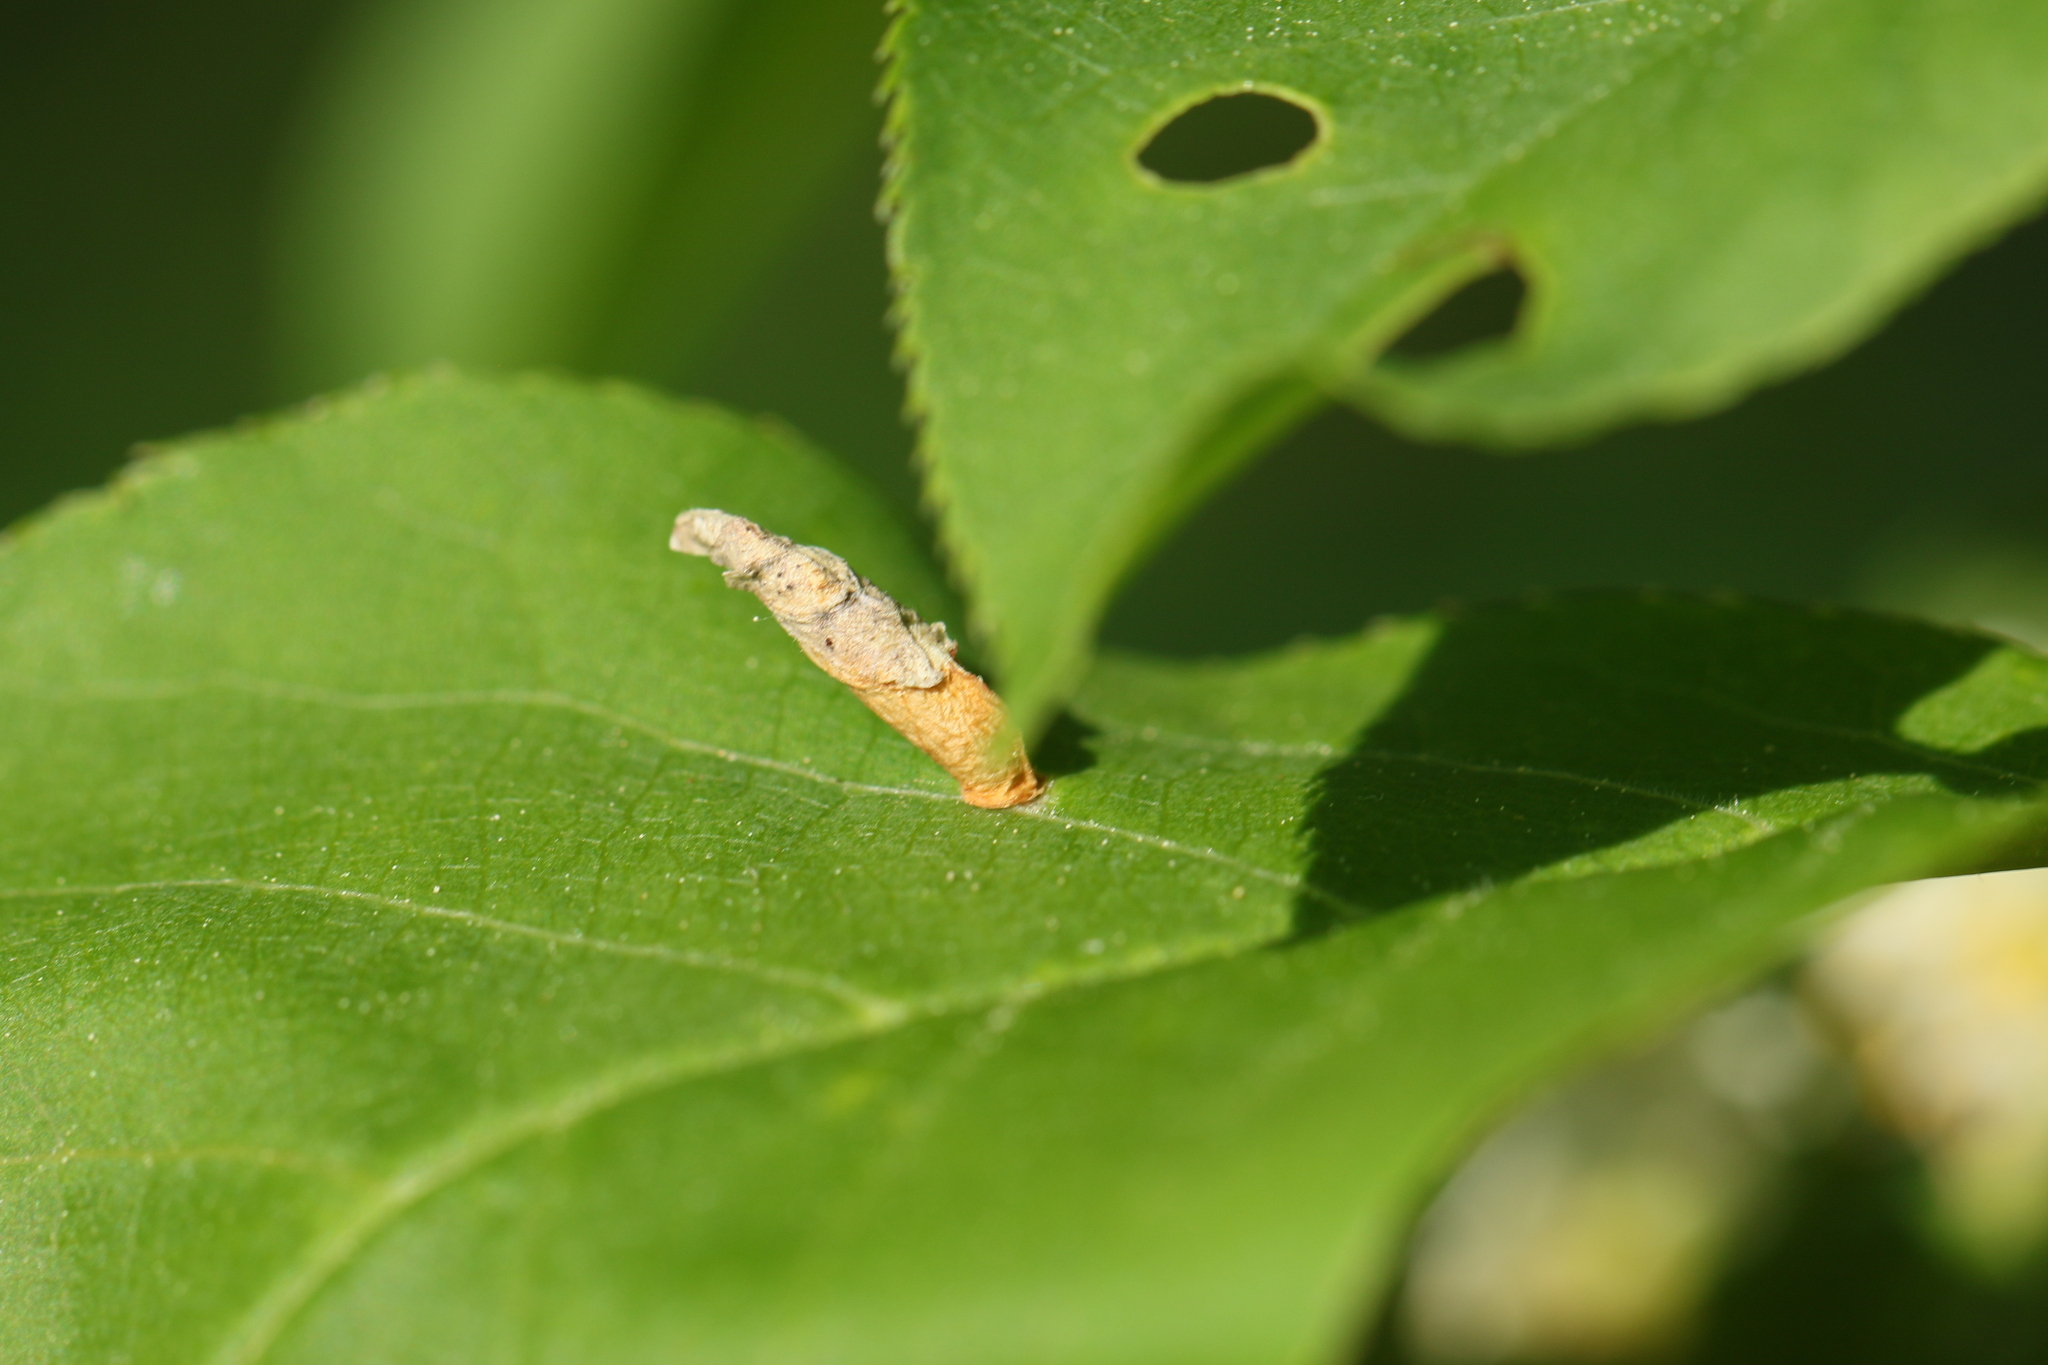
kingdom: Animalia
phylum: Arthropoda
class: Insecta
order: Lepidoptera
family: Coleophoridae
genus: Coleophora
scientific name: Coleophora pruniella
